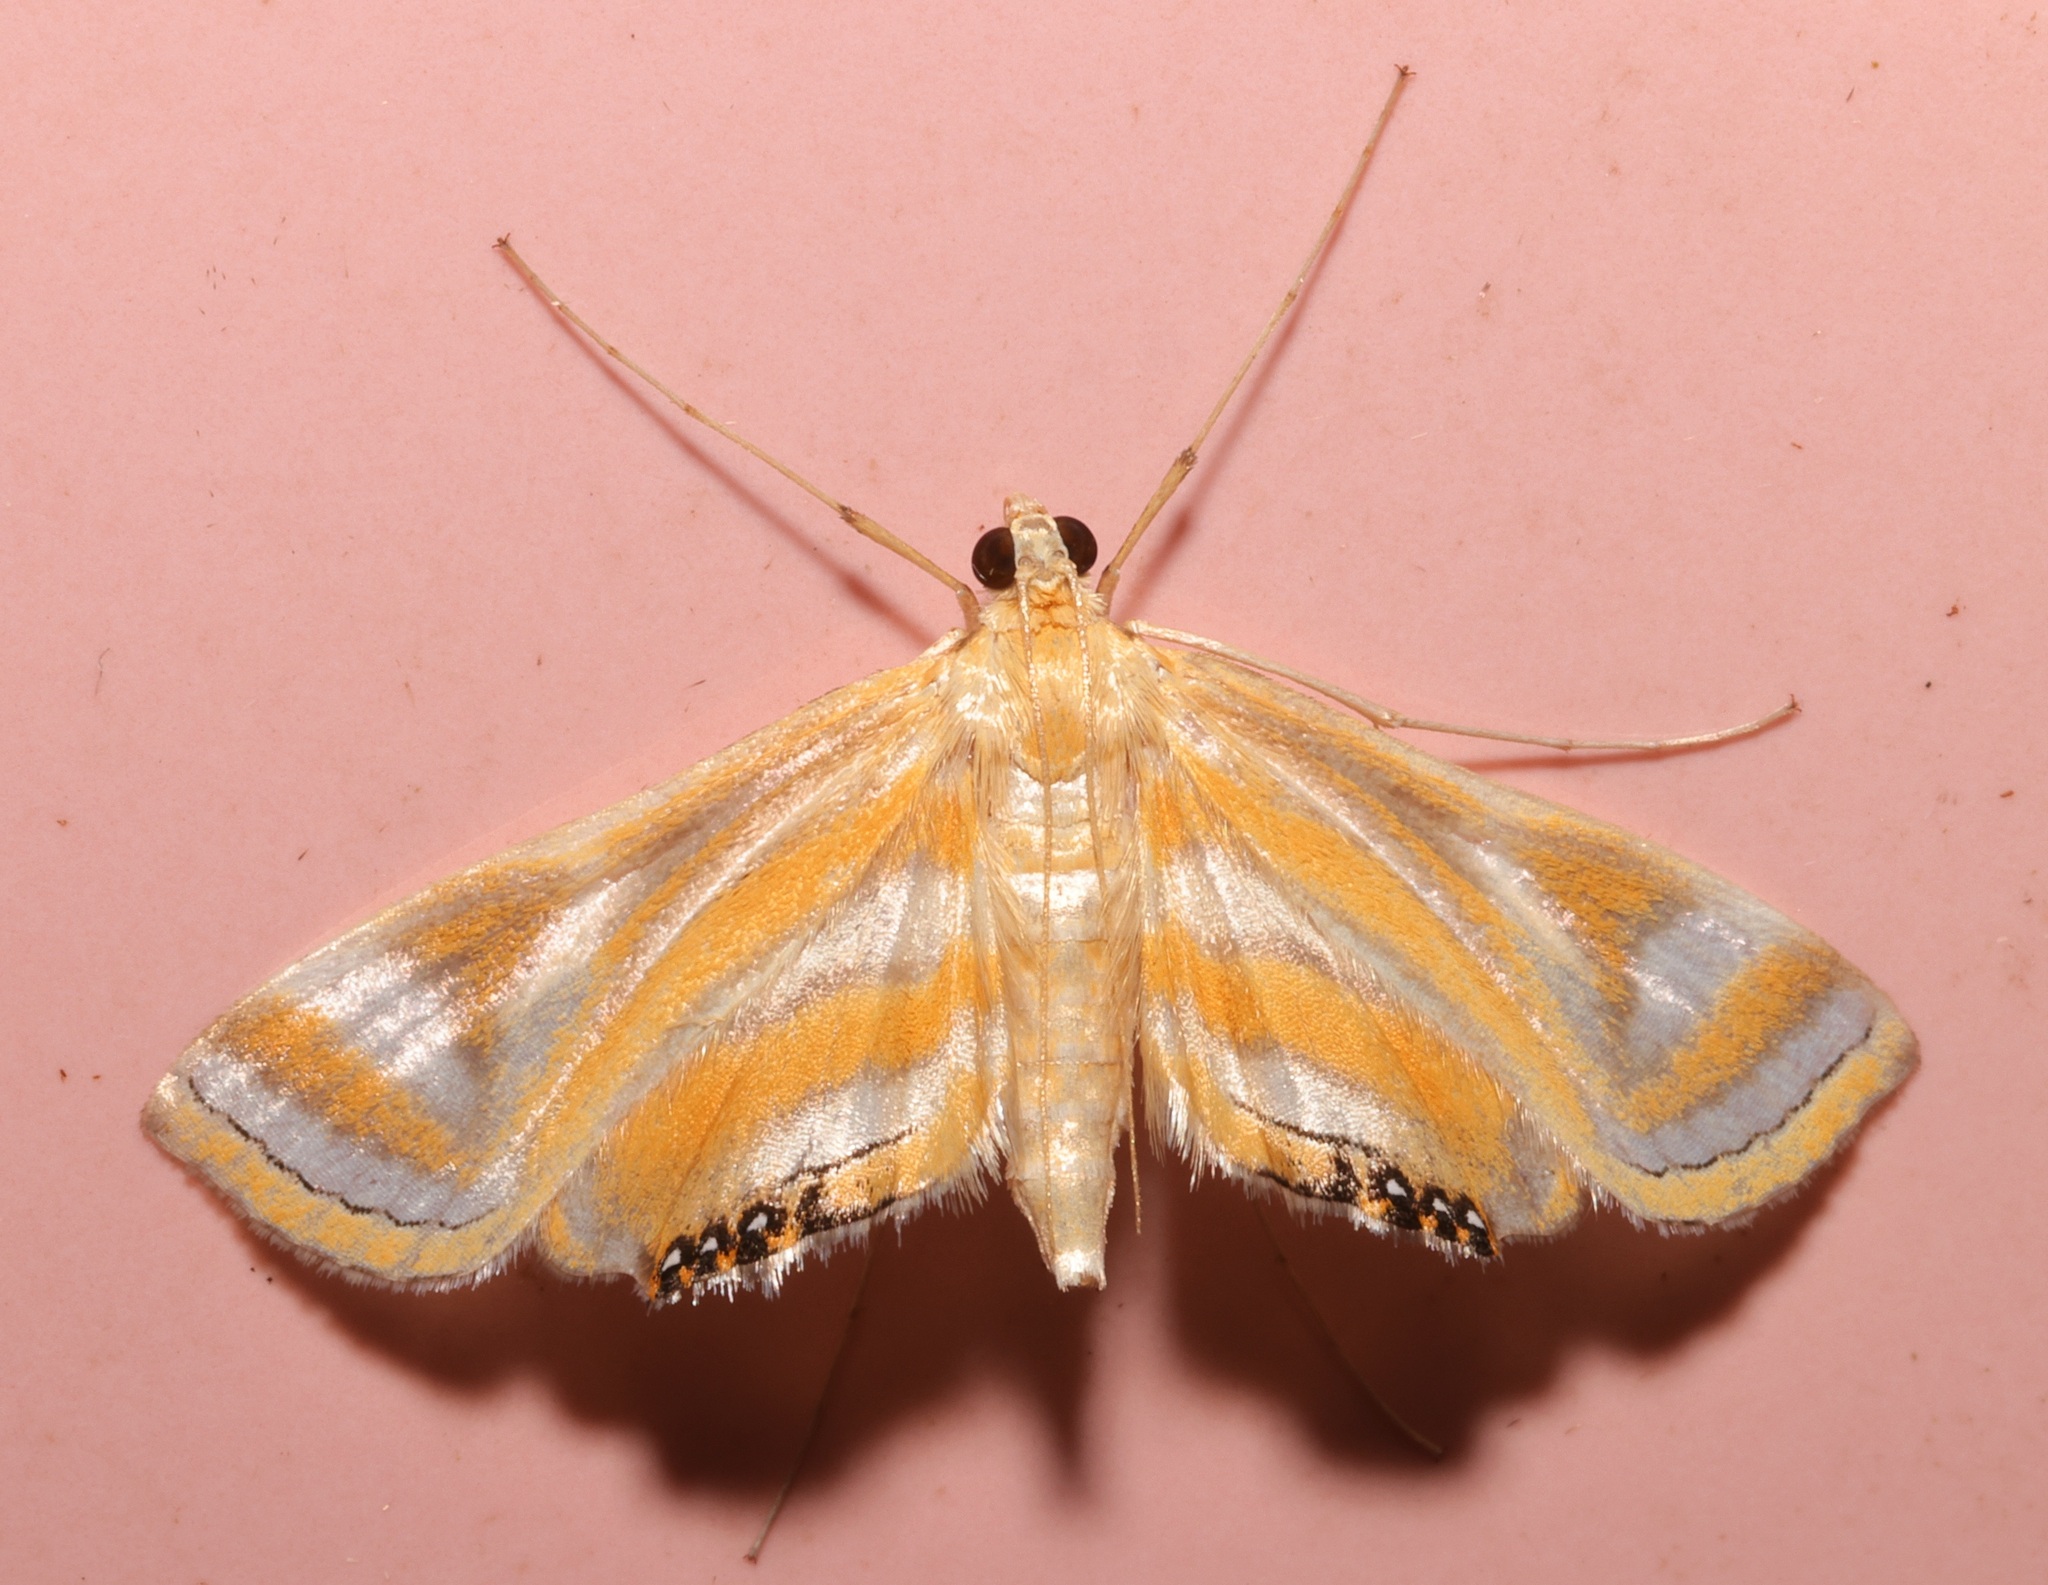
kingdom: Animalia
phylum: Arthropoda
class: Insecta
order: Lepidoptera
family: Crambidae
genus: Eoophyla
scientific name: Eoophyla
